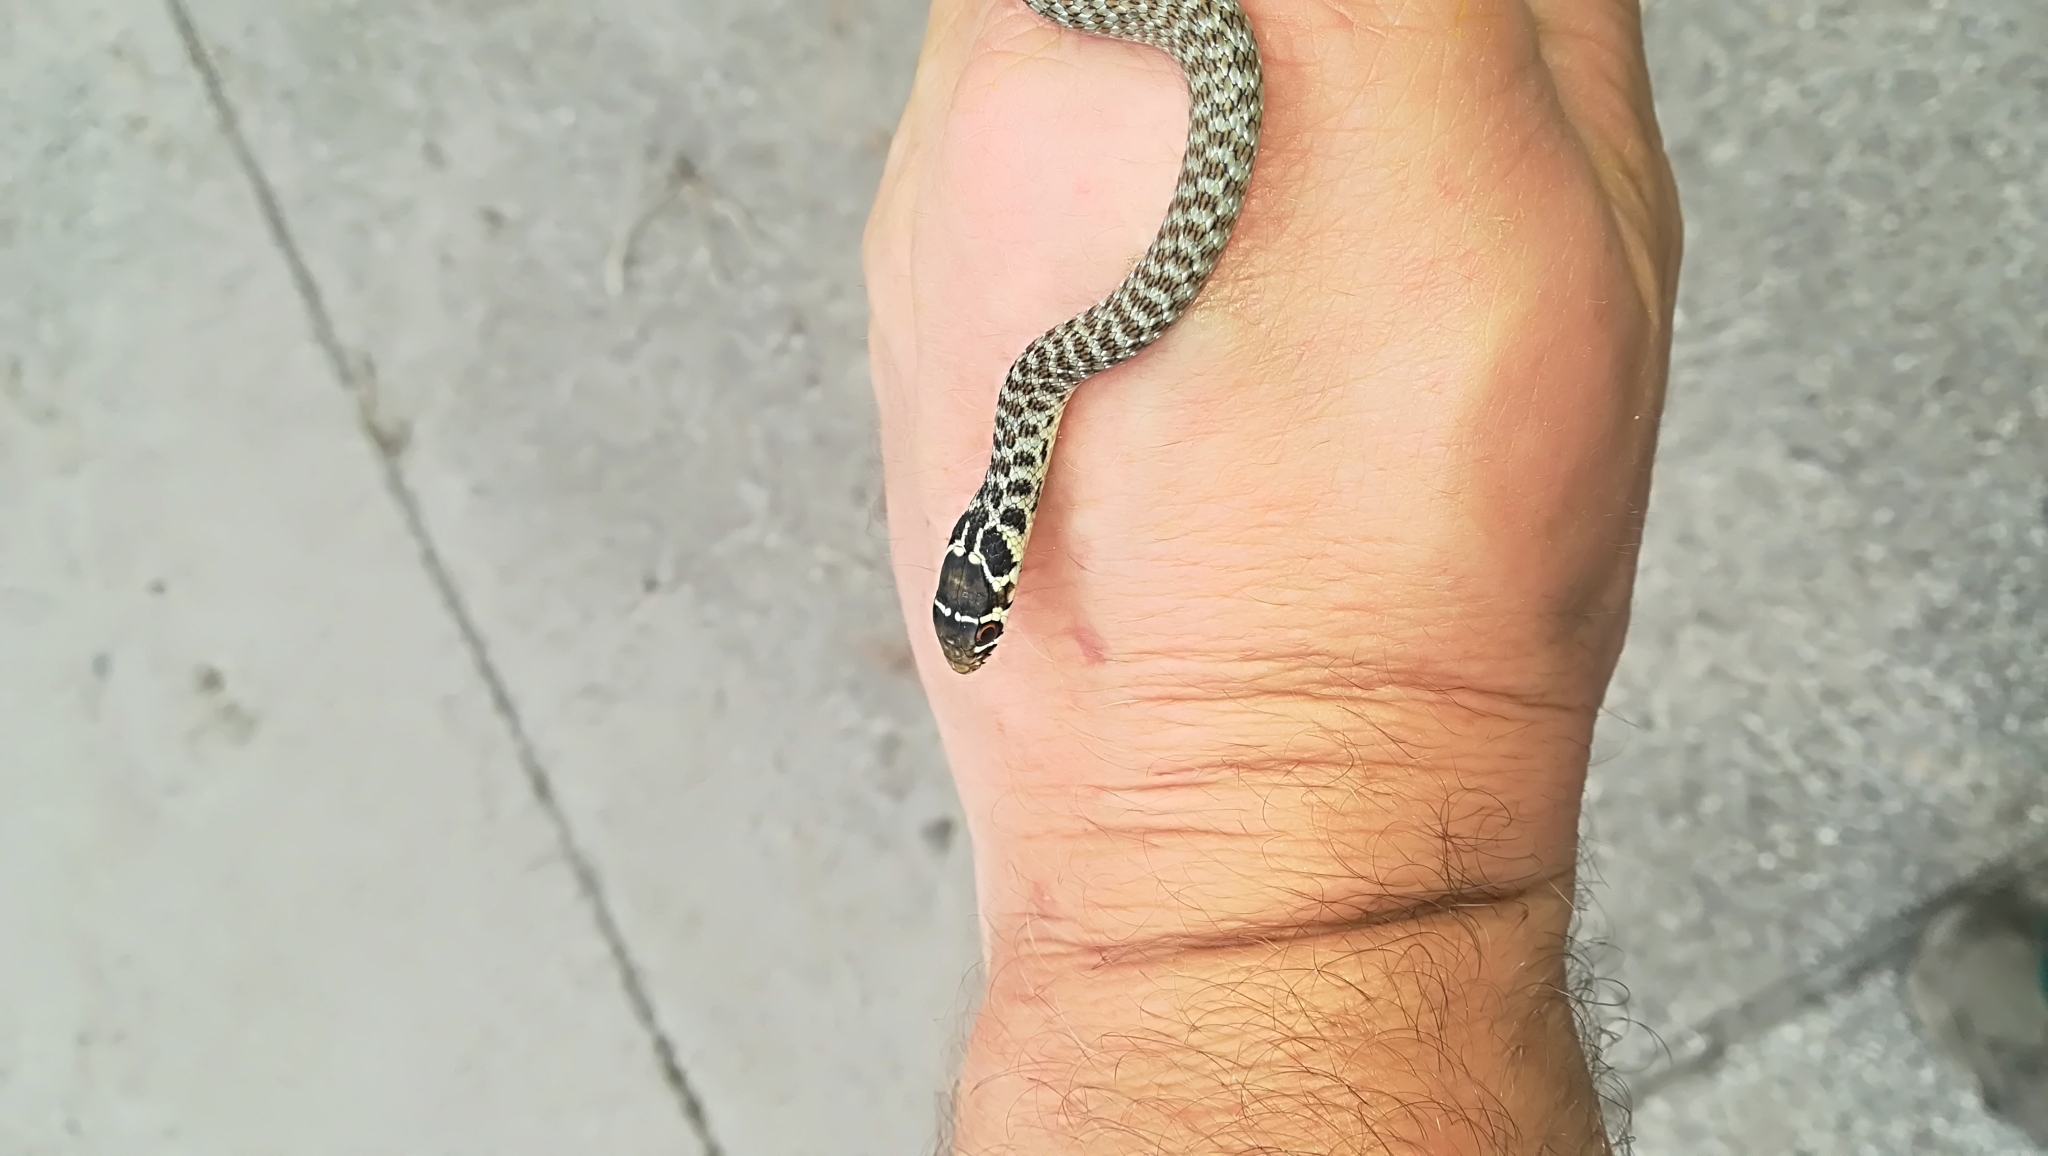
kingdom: Animalia
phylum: Chordata
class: Squamata
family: Colubridae
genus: Hierophis
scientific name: Hierophis viridiflavus
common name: Green whip snake
